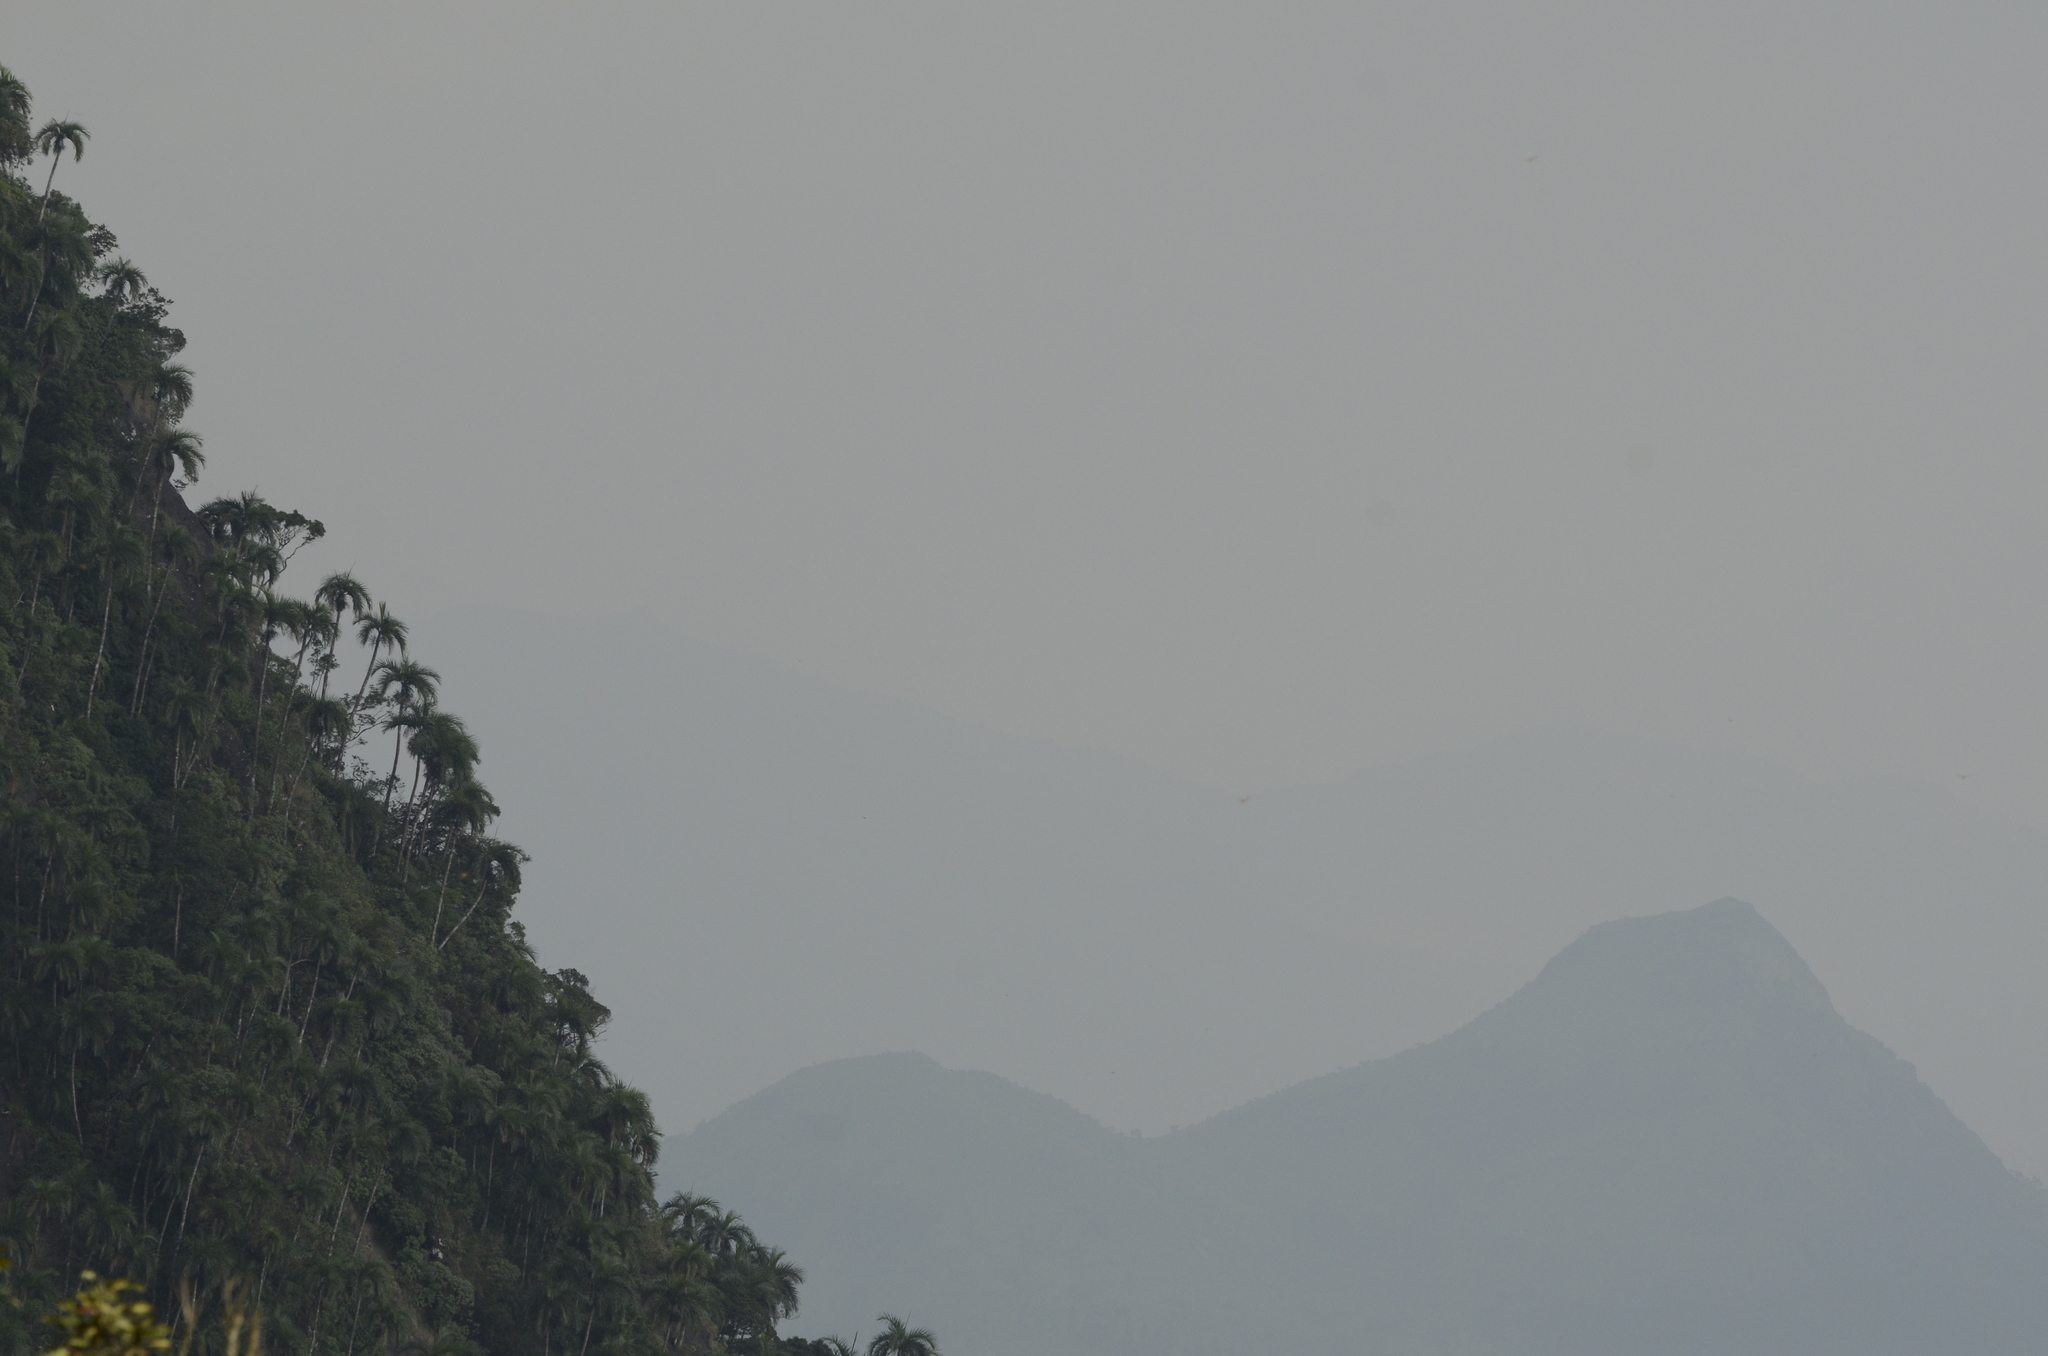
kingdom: Plantae
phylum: Tracheophyta
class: Liliopsida
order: Arecales
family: Arecaceae
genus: Bentinckia
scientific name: Bentinckia condapanna
